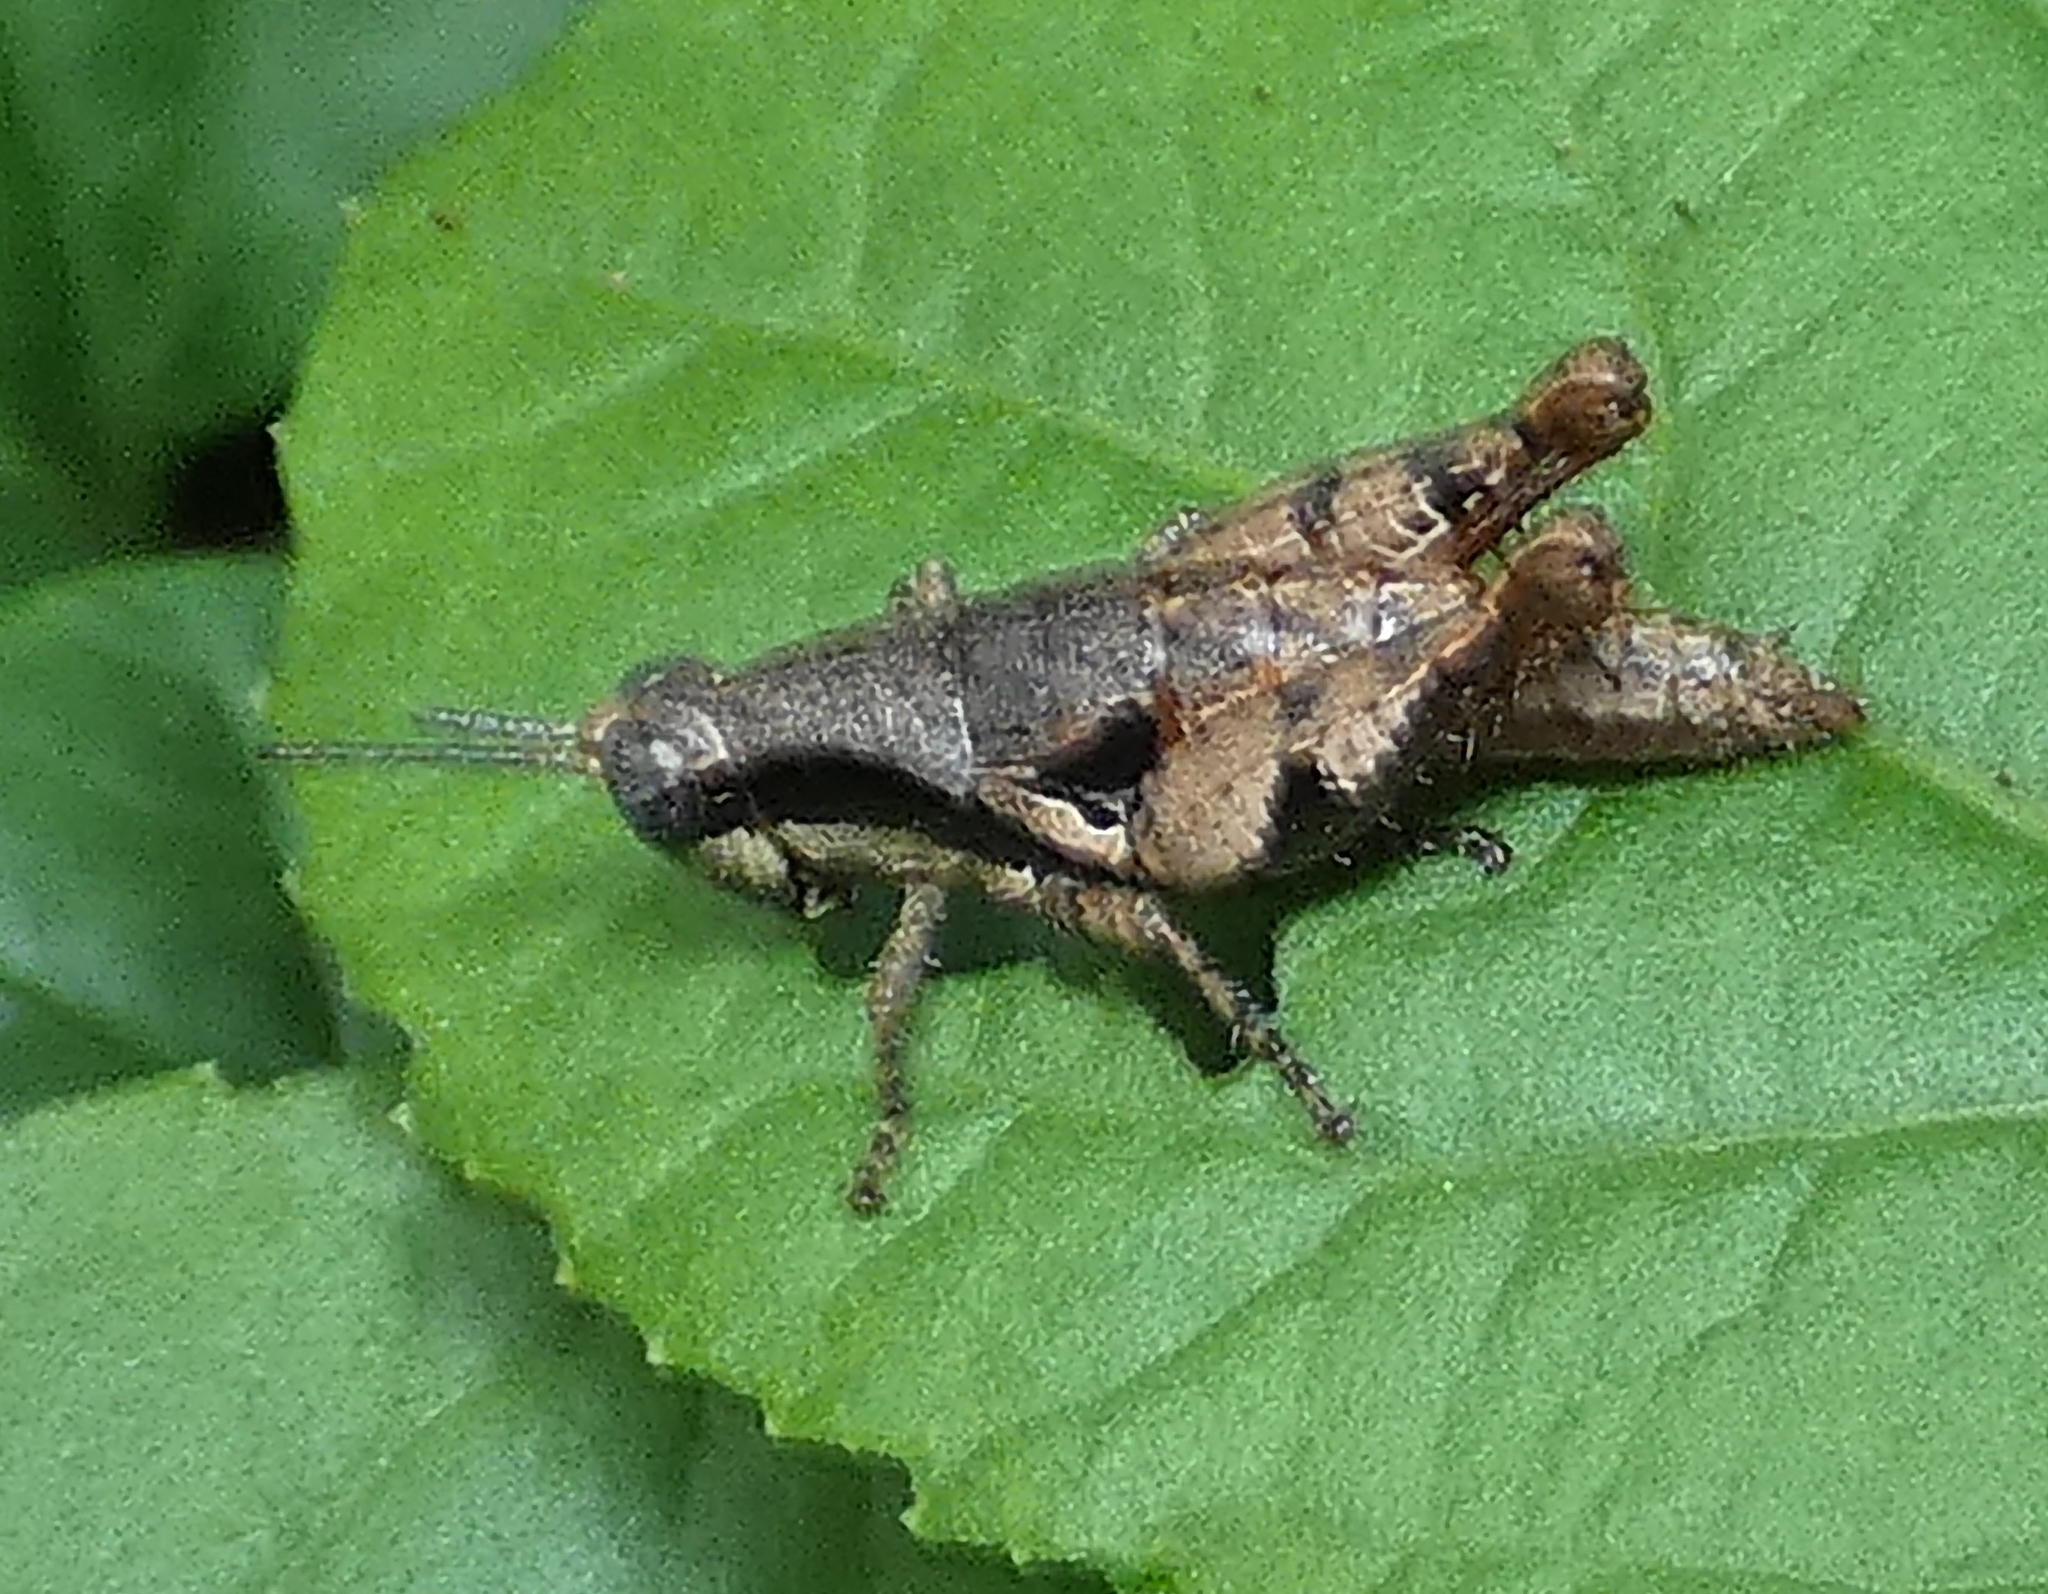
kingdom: Animalia
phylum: Arthropoda
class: Insecta
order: Orthoptera
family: Acrididae
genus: Eujivarus
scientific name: Eujivarus meridionalis
